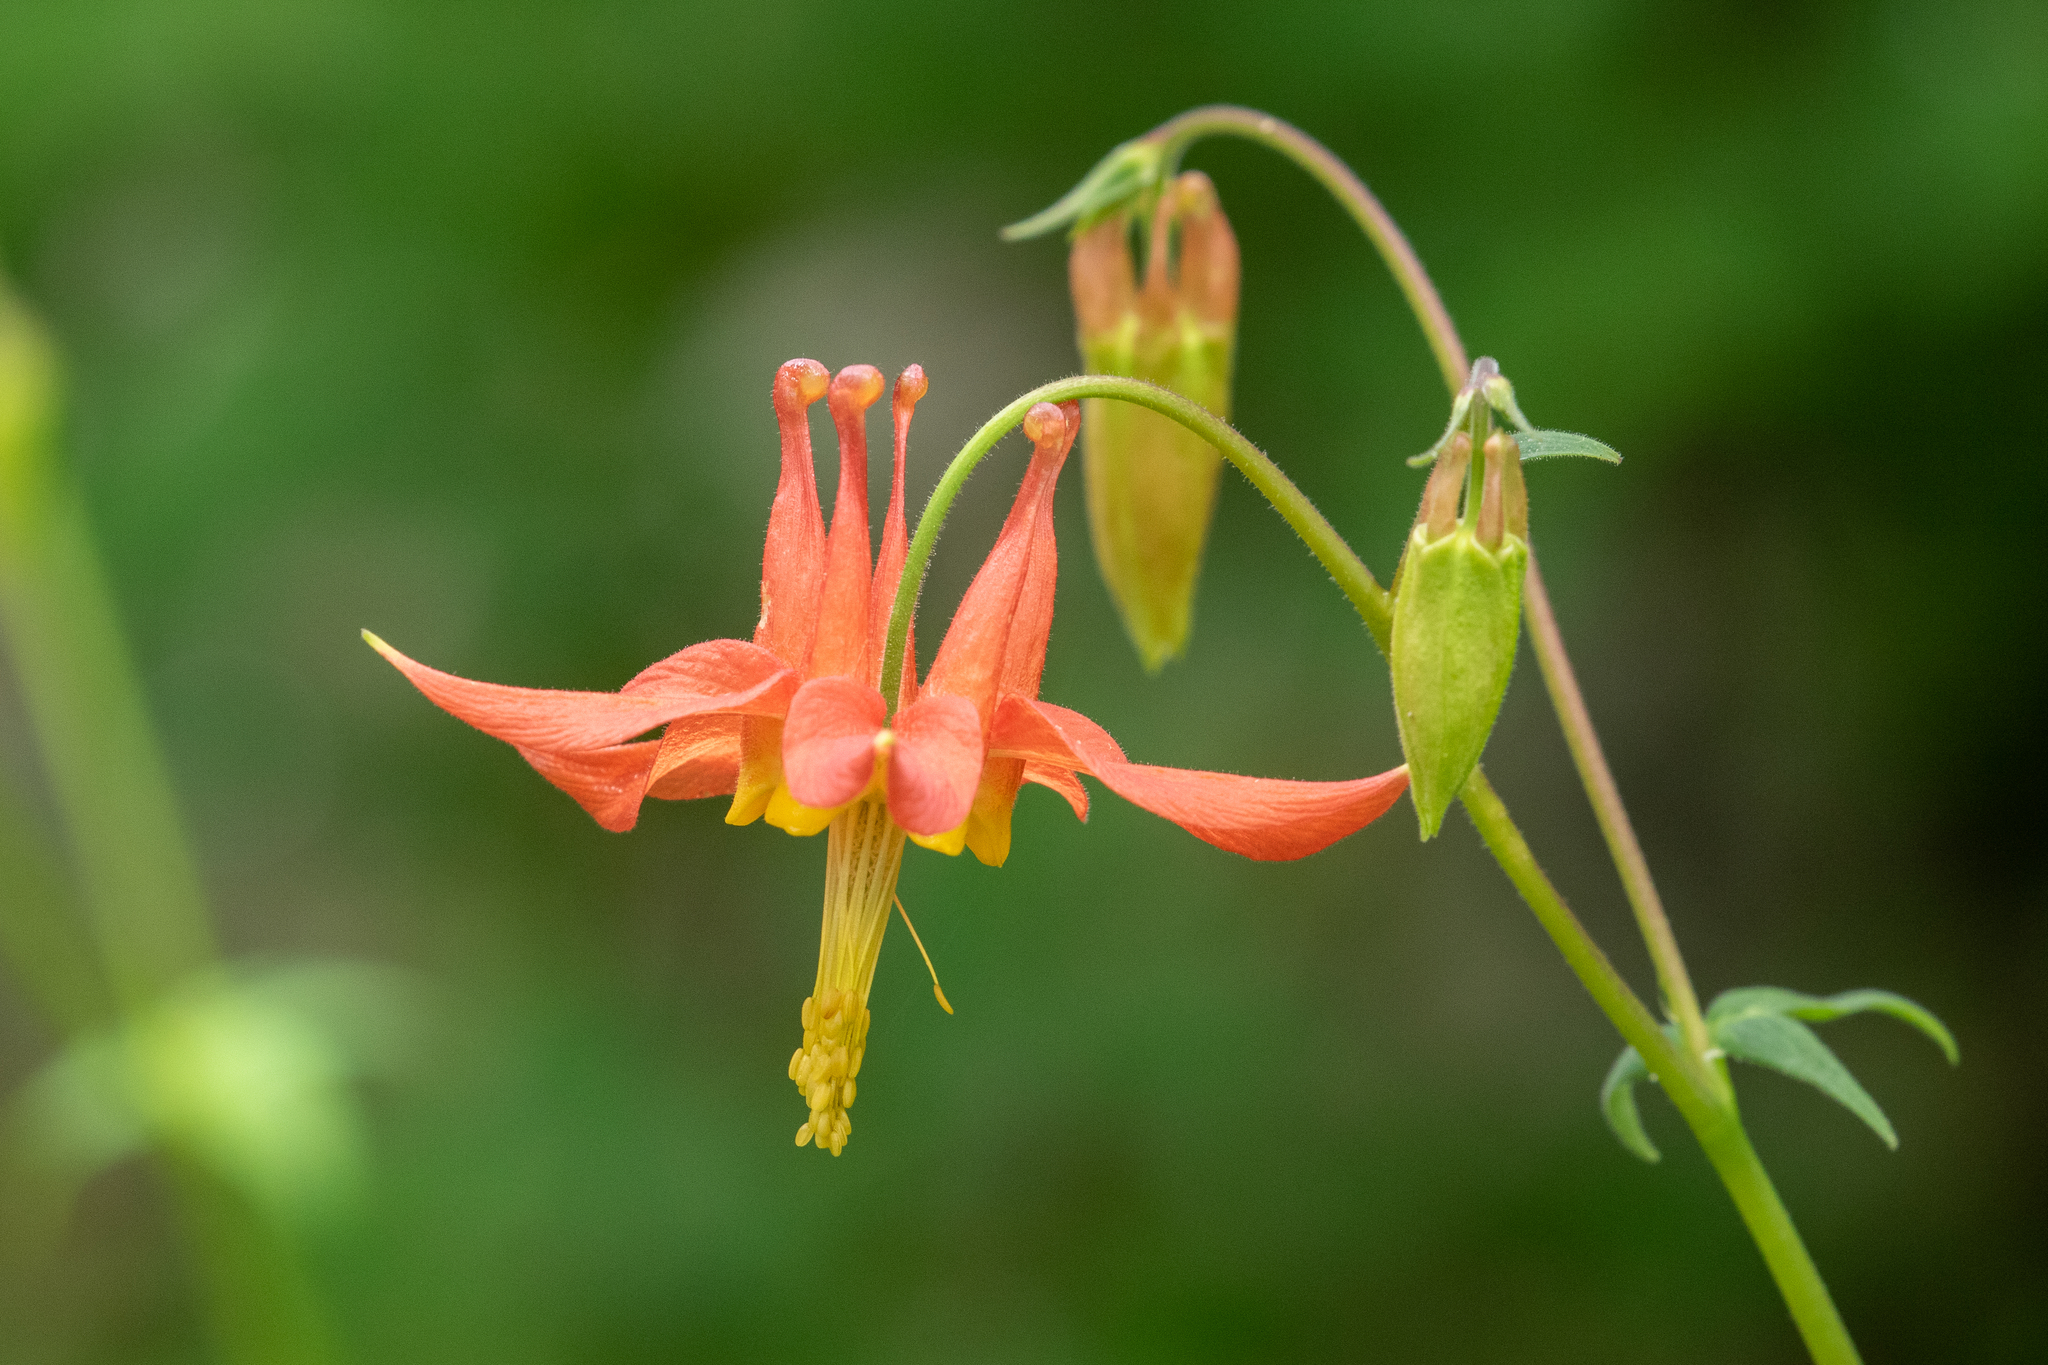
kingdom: Plantae
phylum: Tracheophyta
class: Magnoliopsida
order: Ranunculales
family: Ranunculaceae
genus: Aquilegia
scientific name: Aquilegia formosa
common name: Sitka columbine
